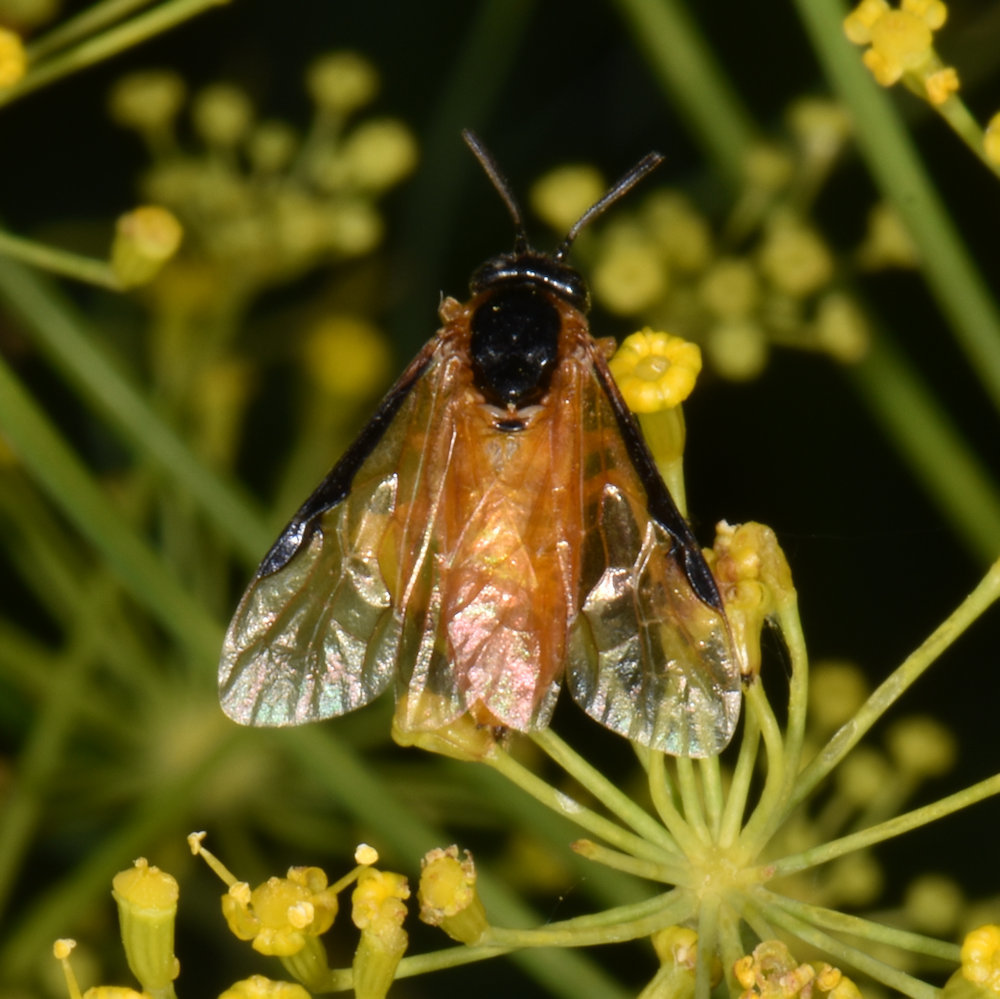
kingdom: Animalia
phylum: Arthropoda
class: Insecta
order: Hymenoptera
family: Argidae
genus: Arge
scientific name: Arge ochropus
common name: Argid sawfly
